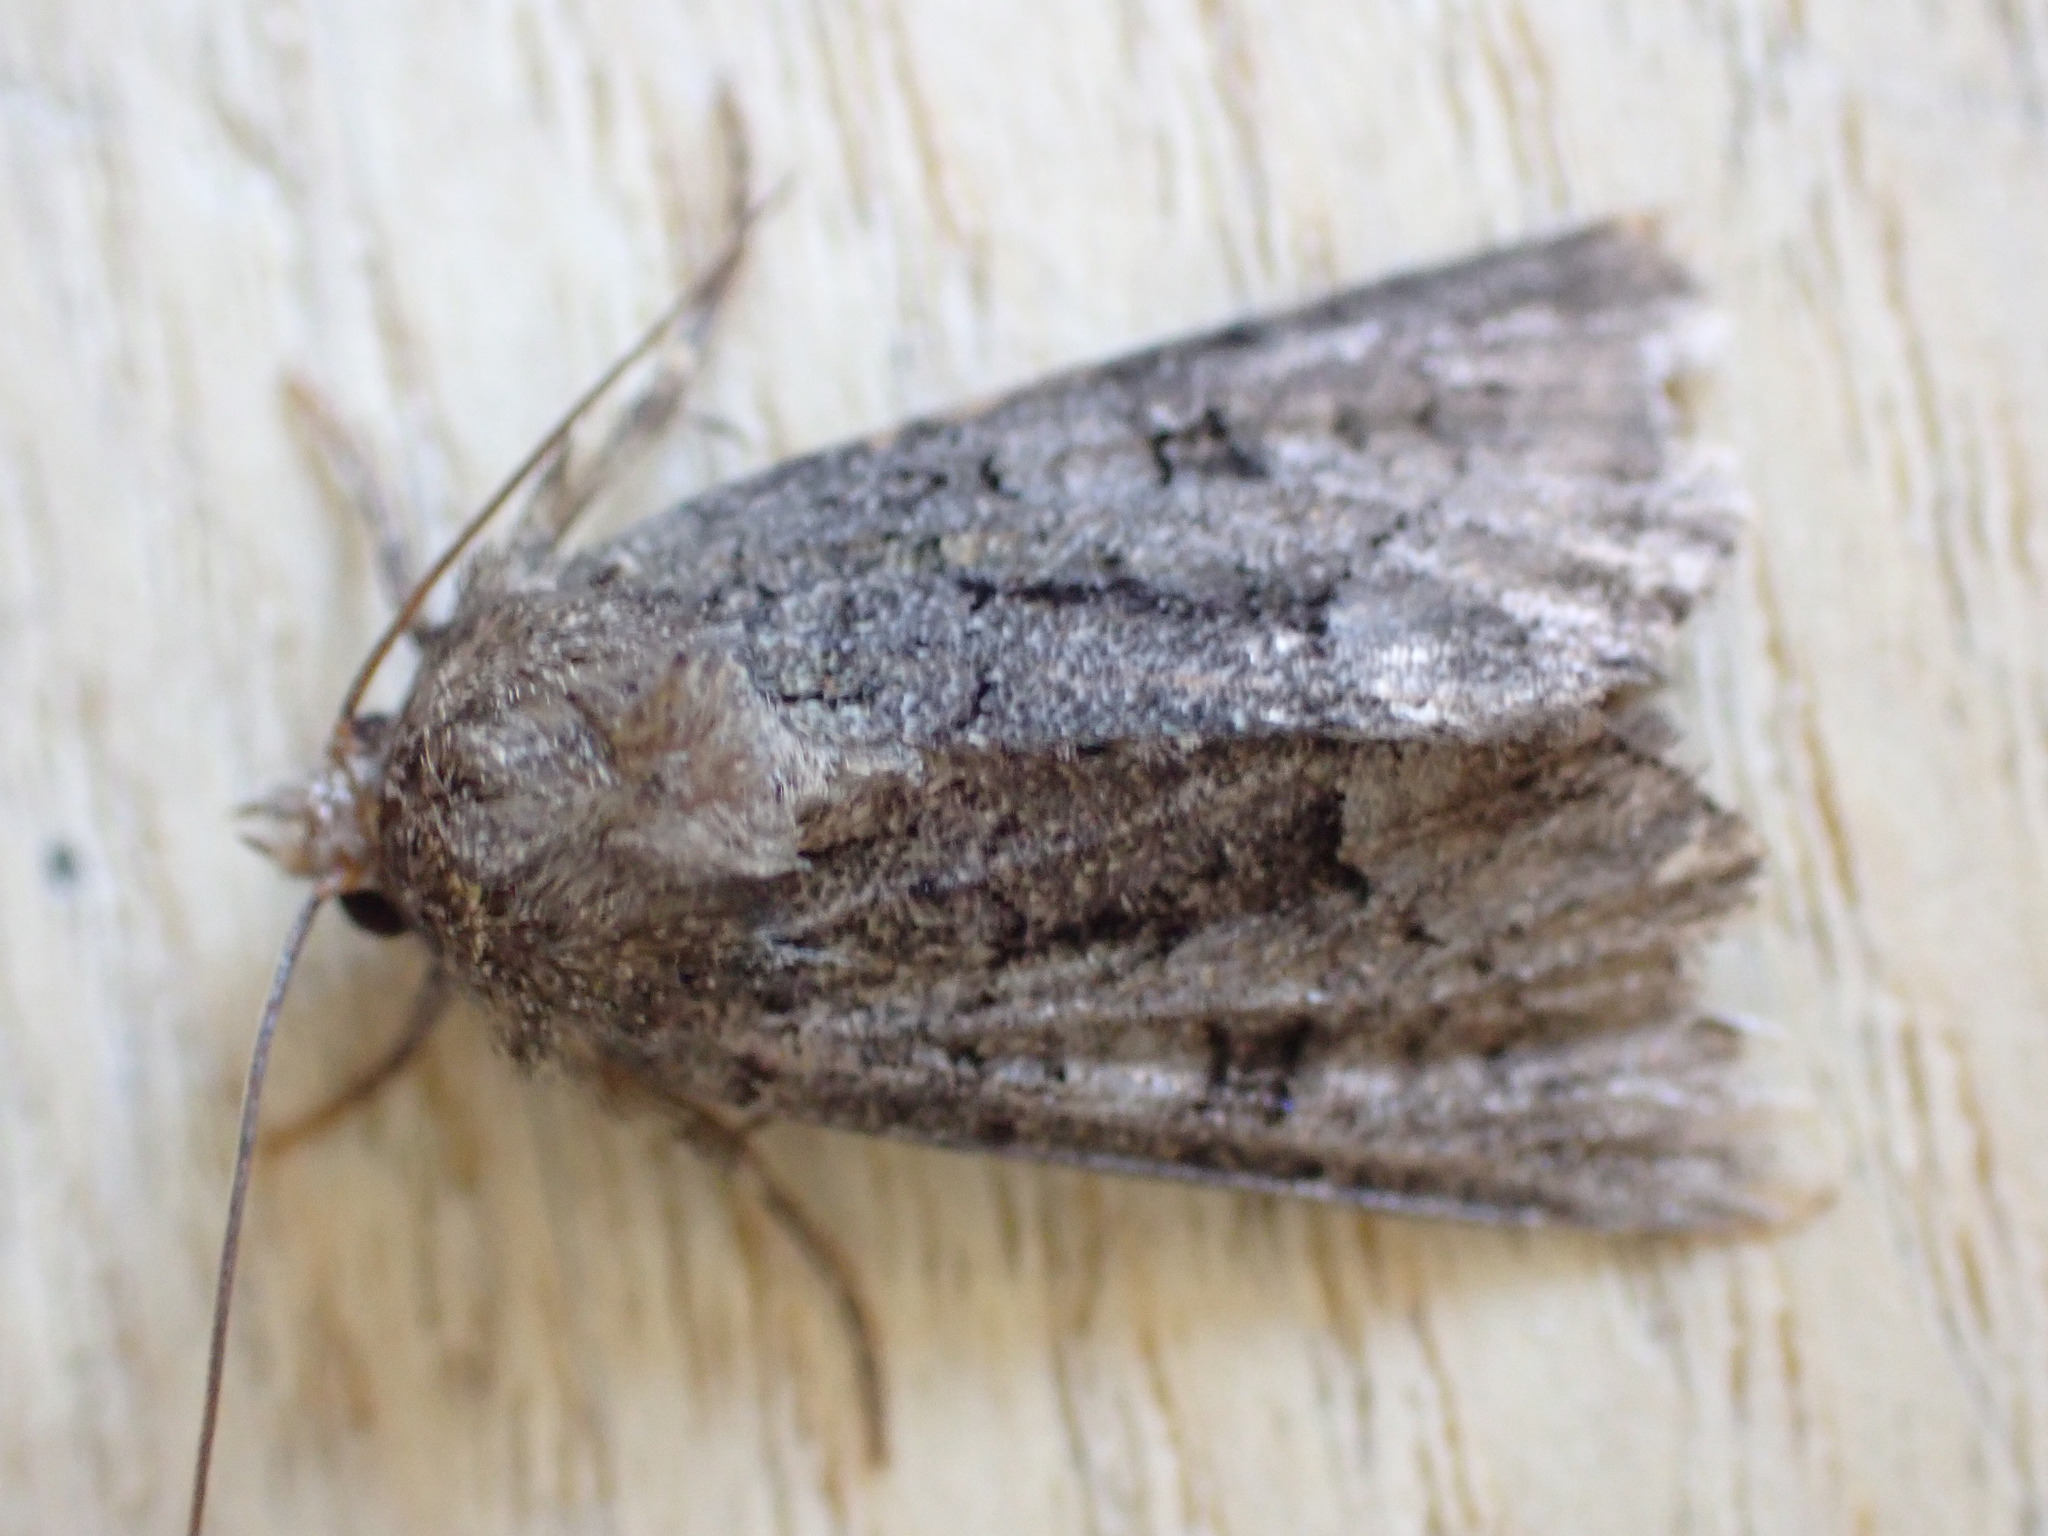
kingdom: Animalia
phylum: Arthropoda
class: Insecta
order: Lepidoptera
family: Noctuidae
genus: Oligia
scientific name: Oligia latruncula
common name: Tawny marbled minor
